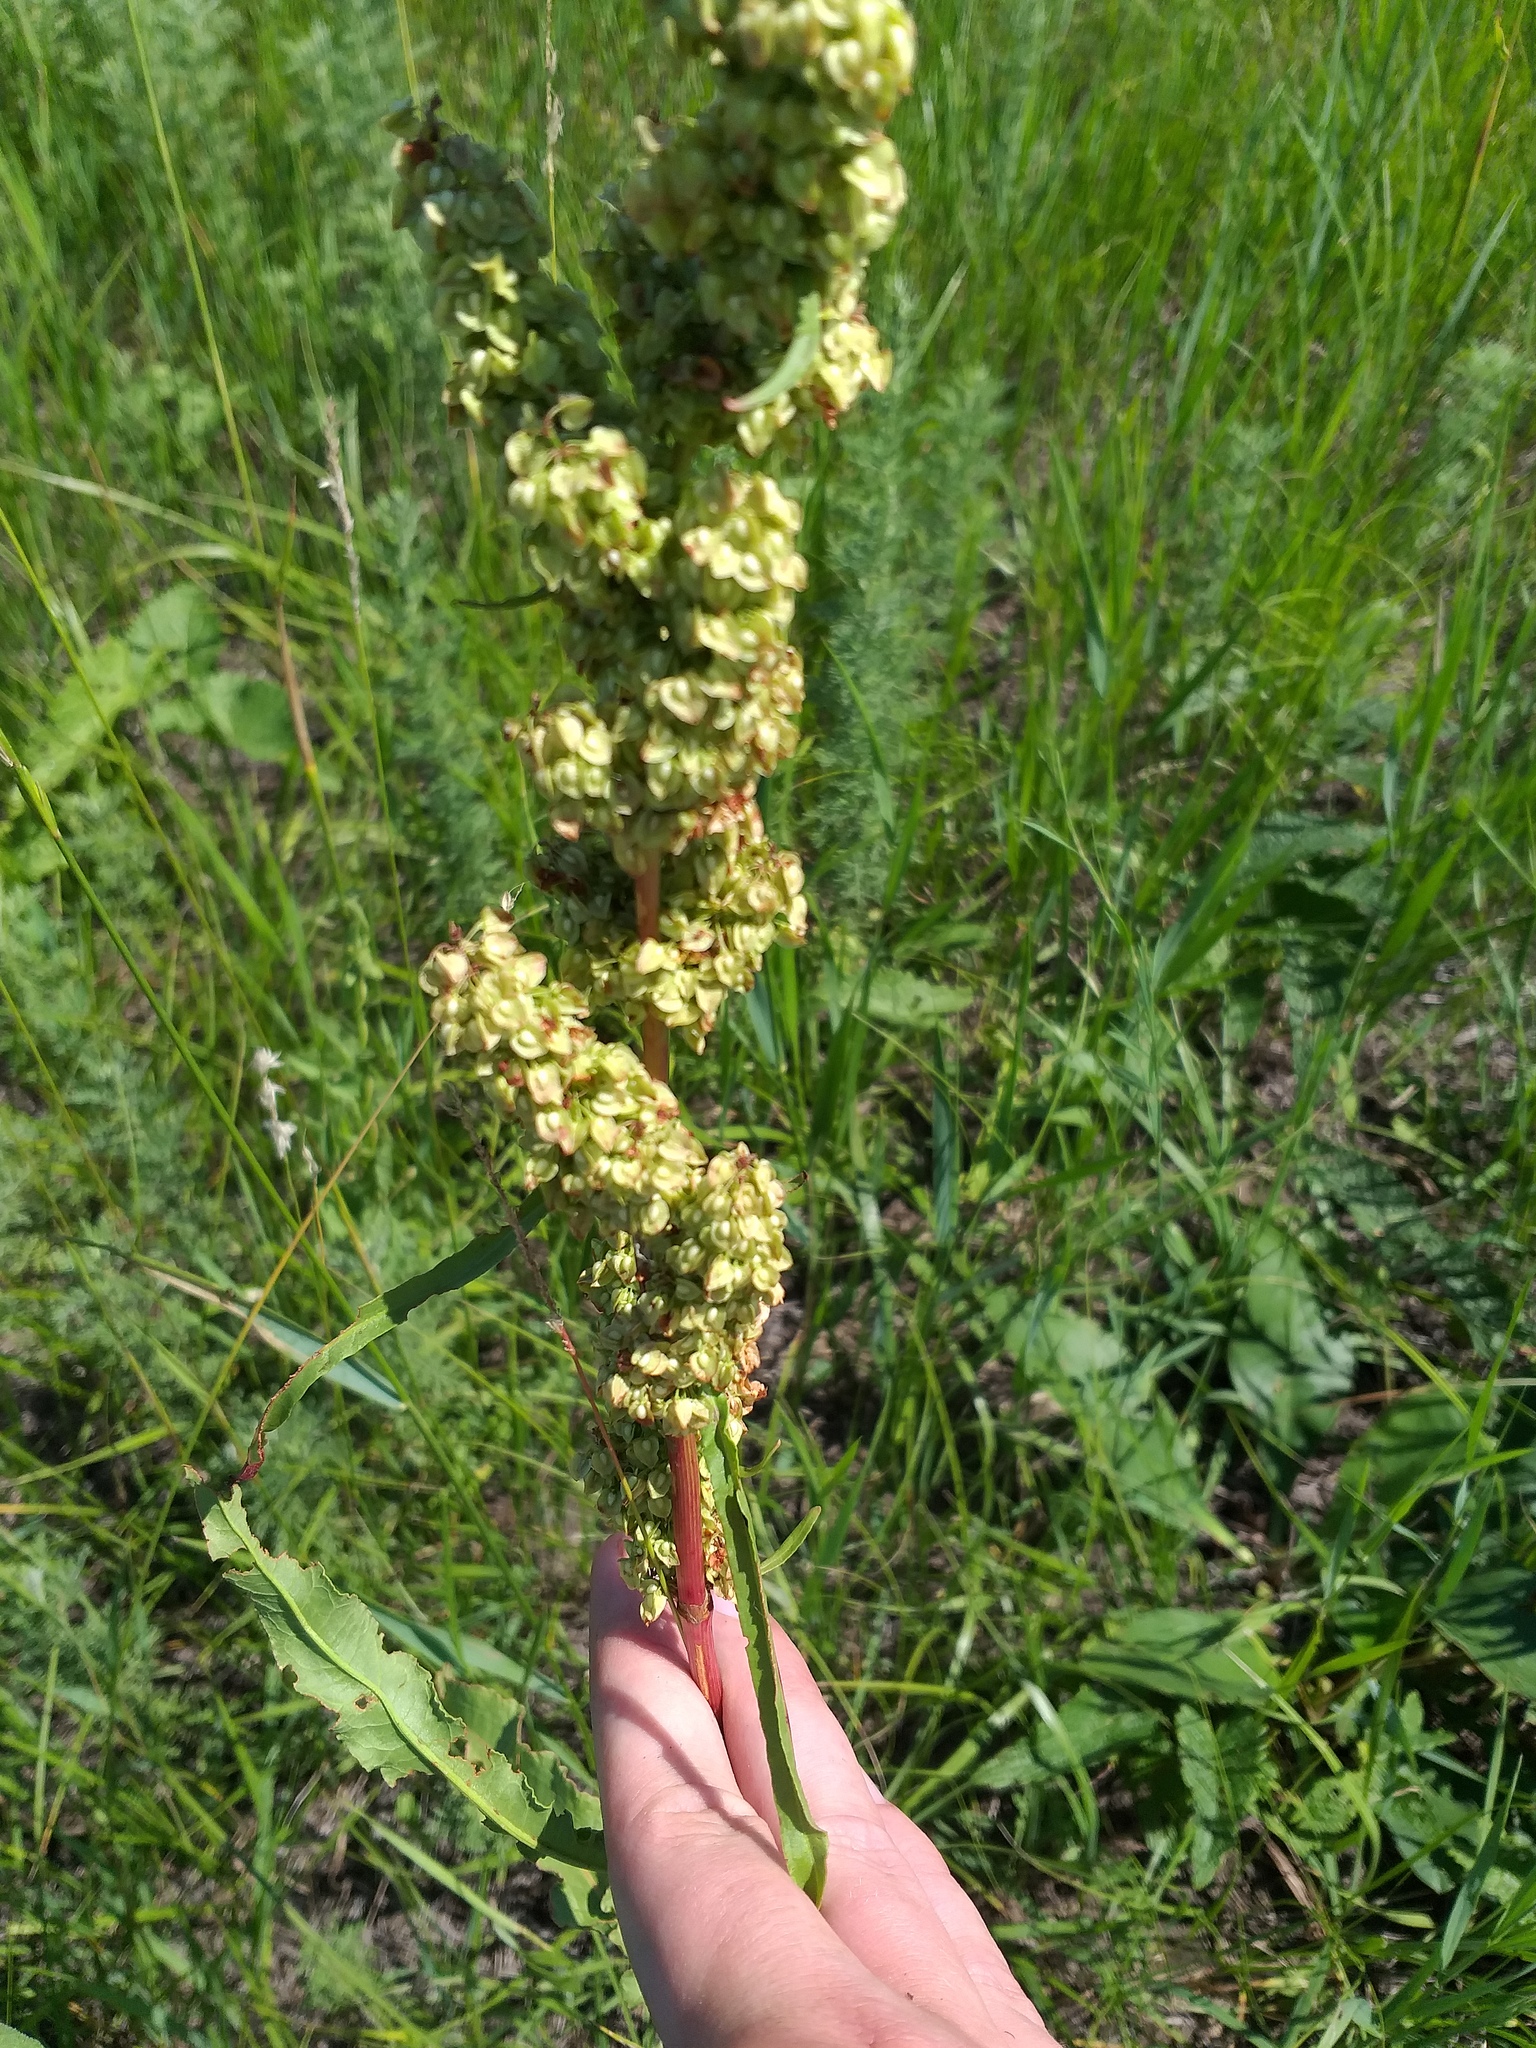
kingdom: Plantae
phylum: Tracheophyta
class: Magnoliopsida
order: Caryophyllales
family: Polygonaceae
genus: Rumex
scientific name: Rumex crispus
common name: Curled dock
